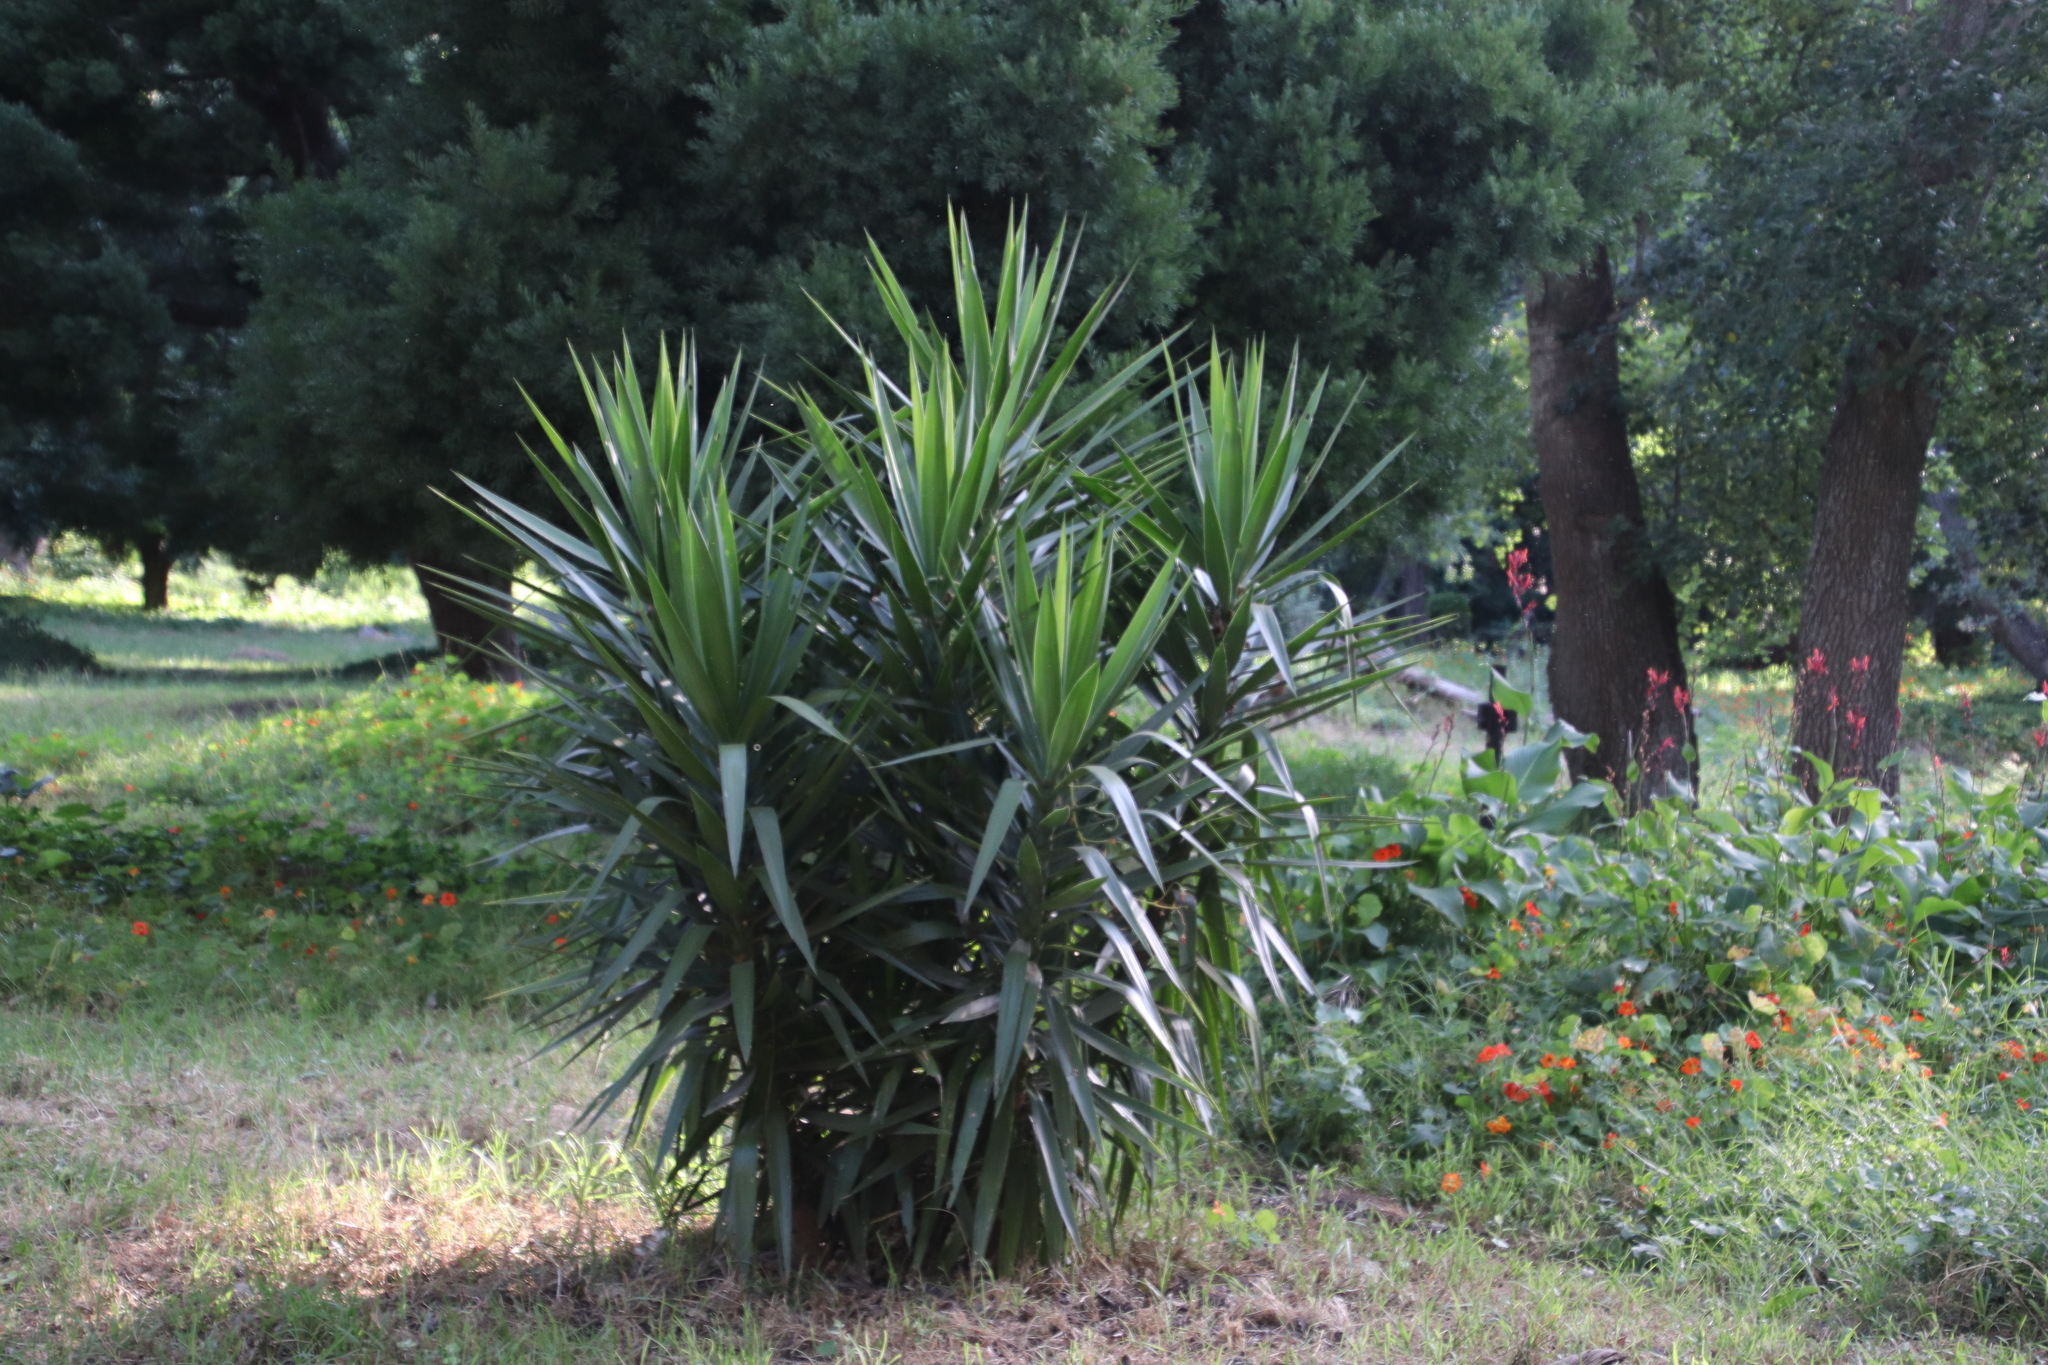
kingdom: Plantae
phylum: Tracheophyta
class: Liliopsida
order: Asparagales
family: Asparagaceae
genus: Yucca
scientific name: Yucca gigantea
